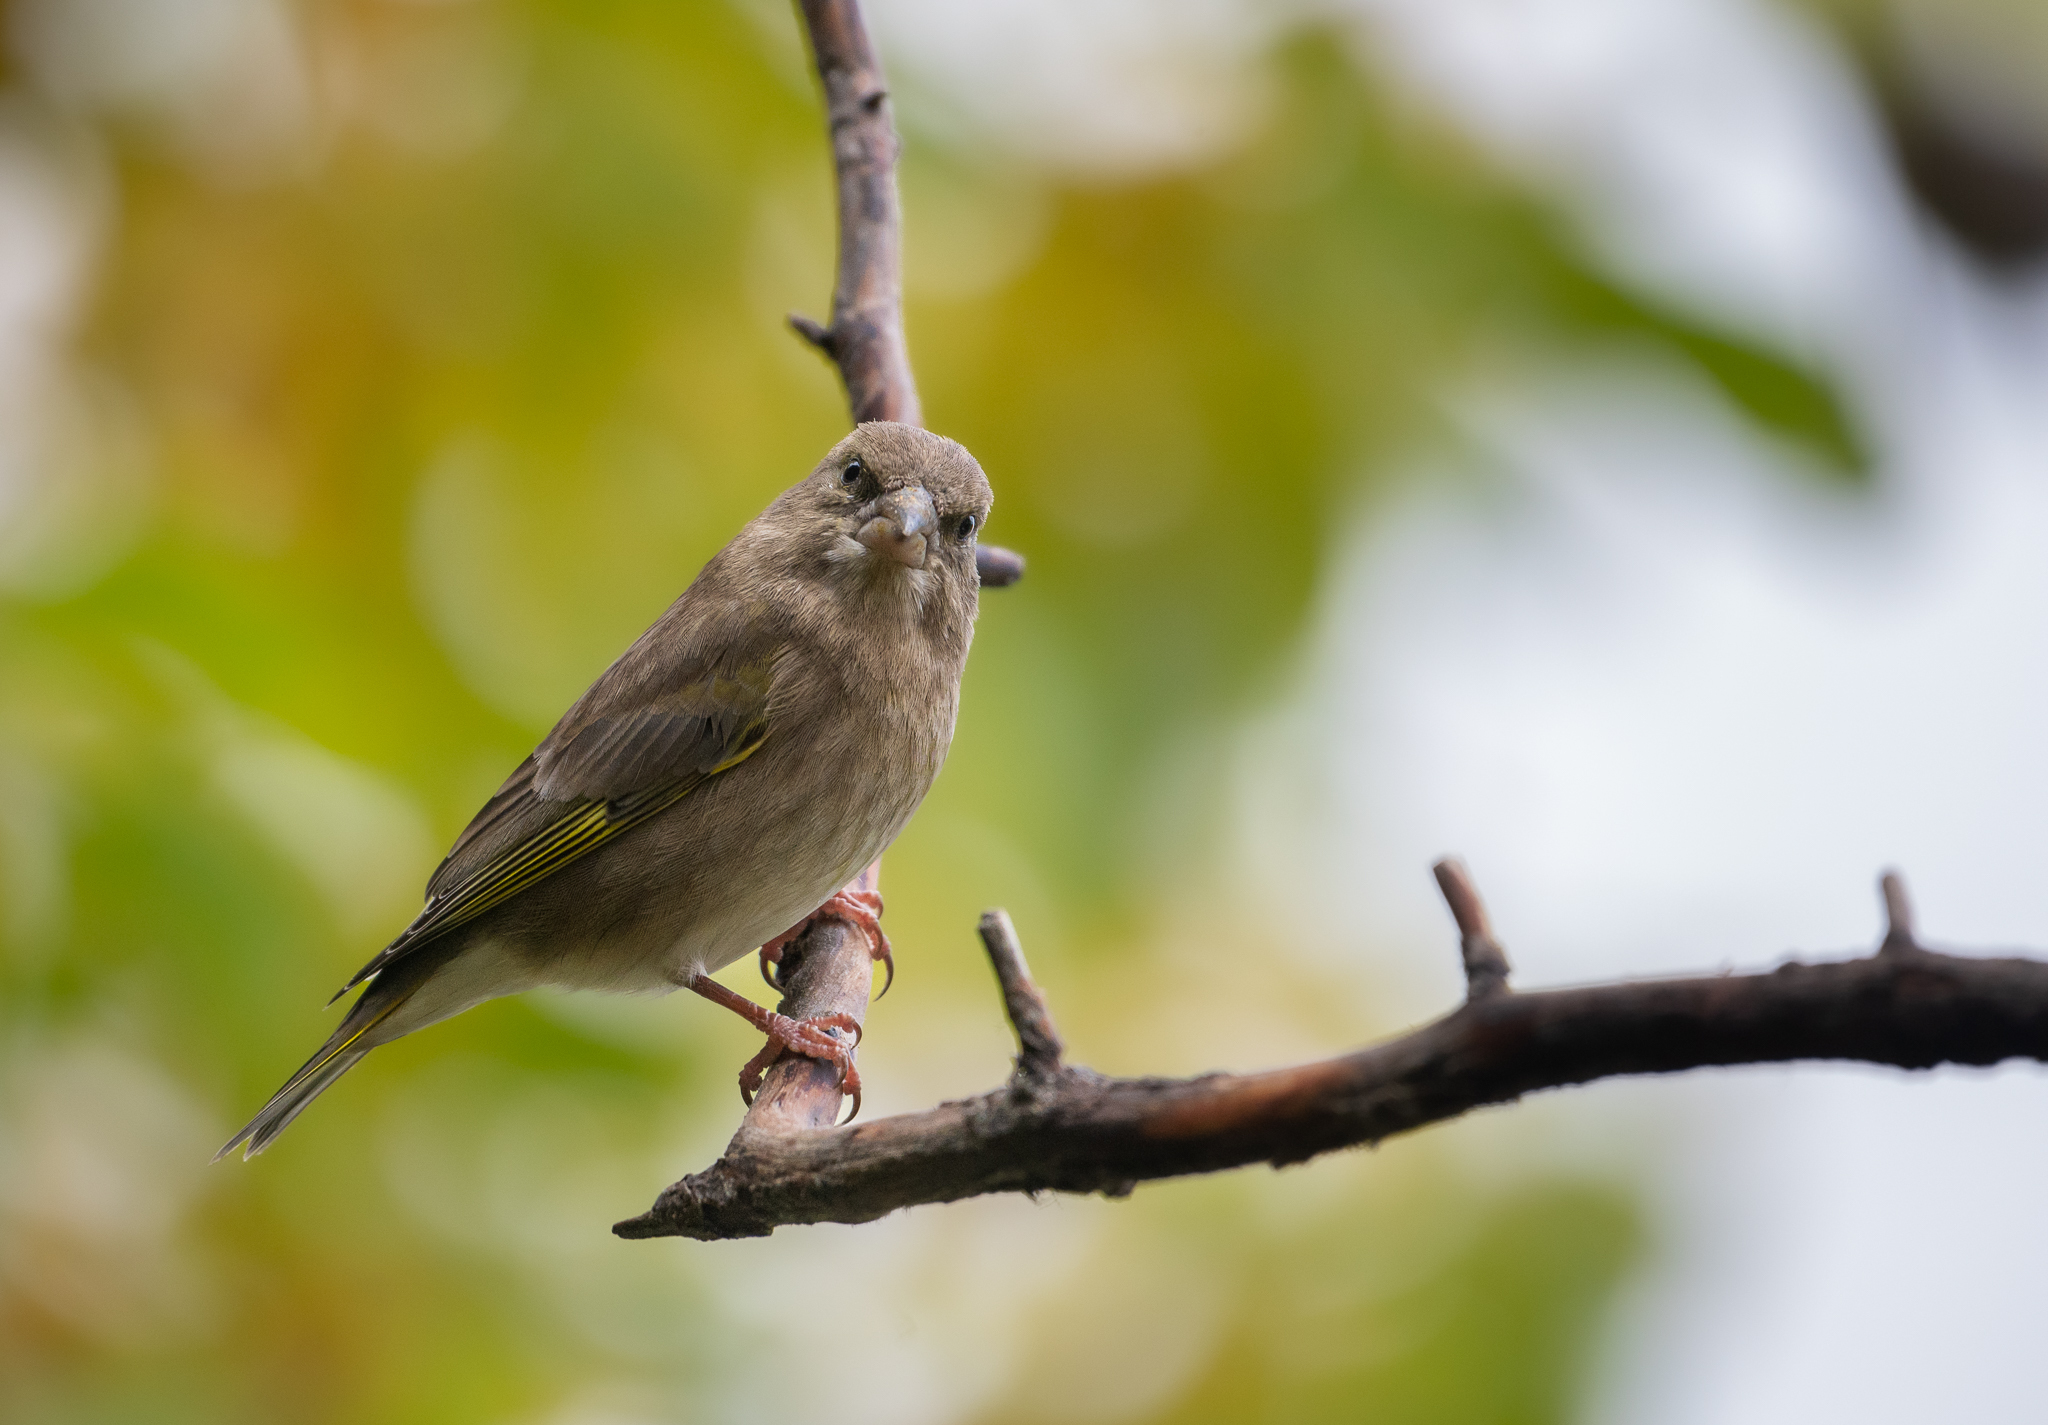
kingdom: Plantae
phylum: Tracheophyta
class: Liliopsida
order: Poales
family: Poaceae
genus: Chloris
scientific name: Chloris chloris
